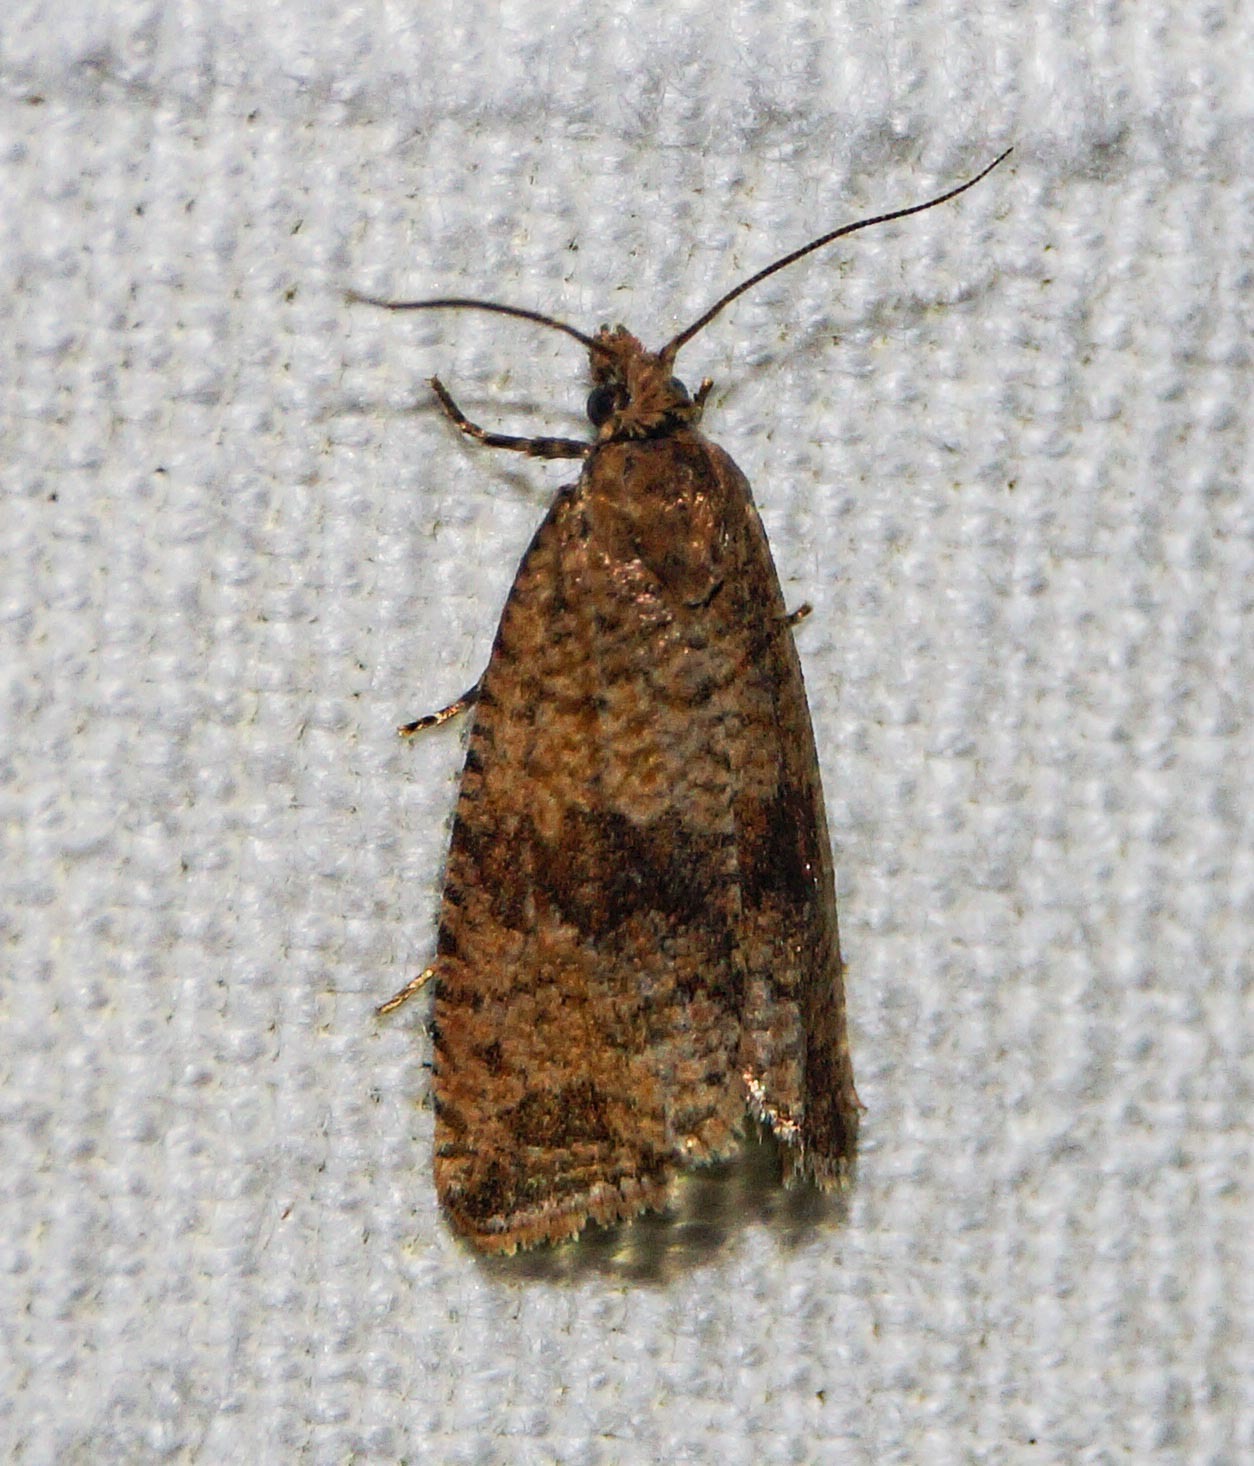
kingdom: Animalia
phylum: Arthropoda
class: Insecta
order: Lepidoptera
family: Tortricidae
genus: Celypha
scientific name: Celypha striana
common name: Barred marble
